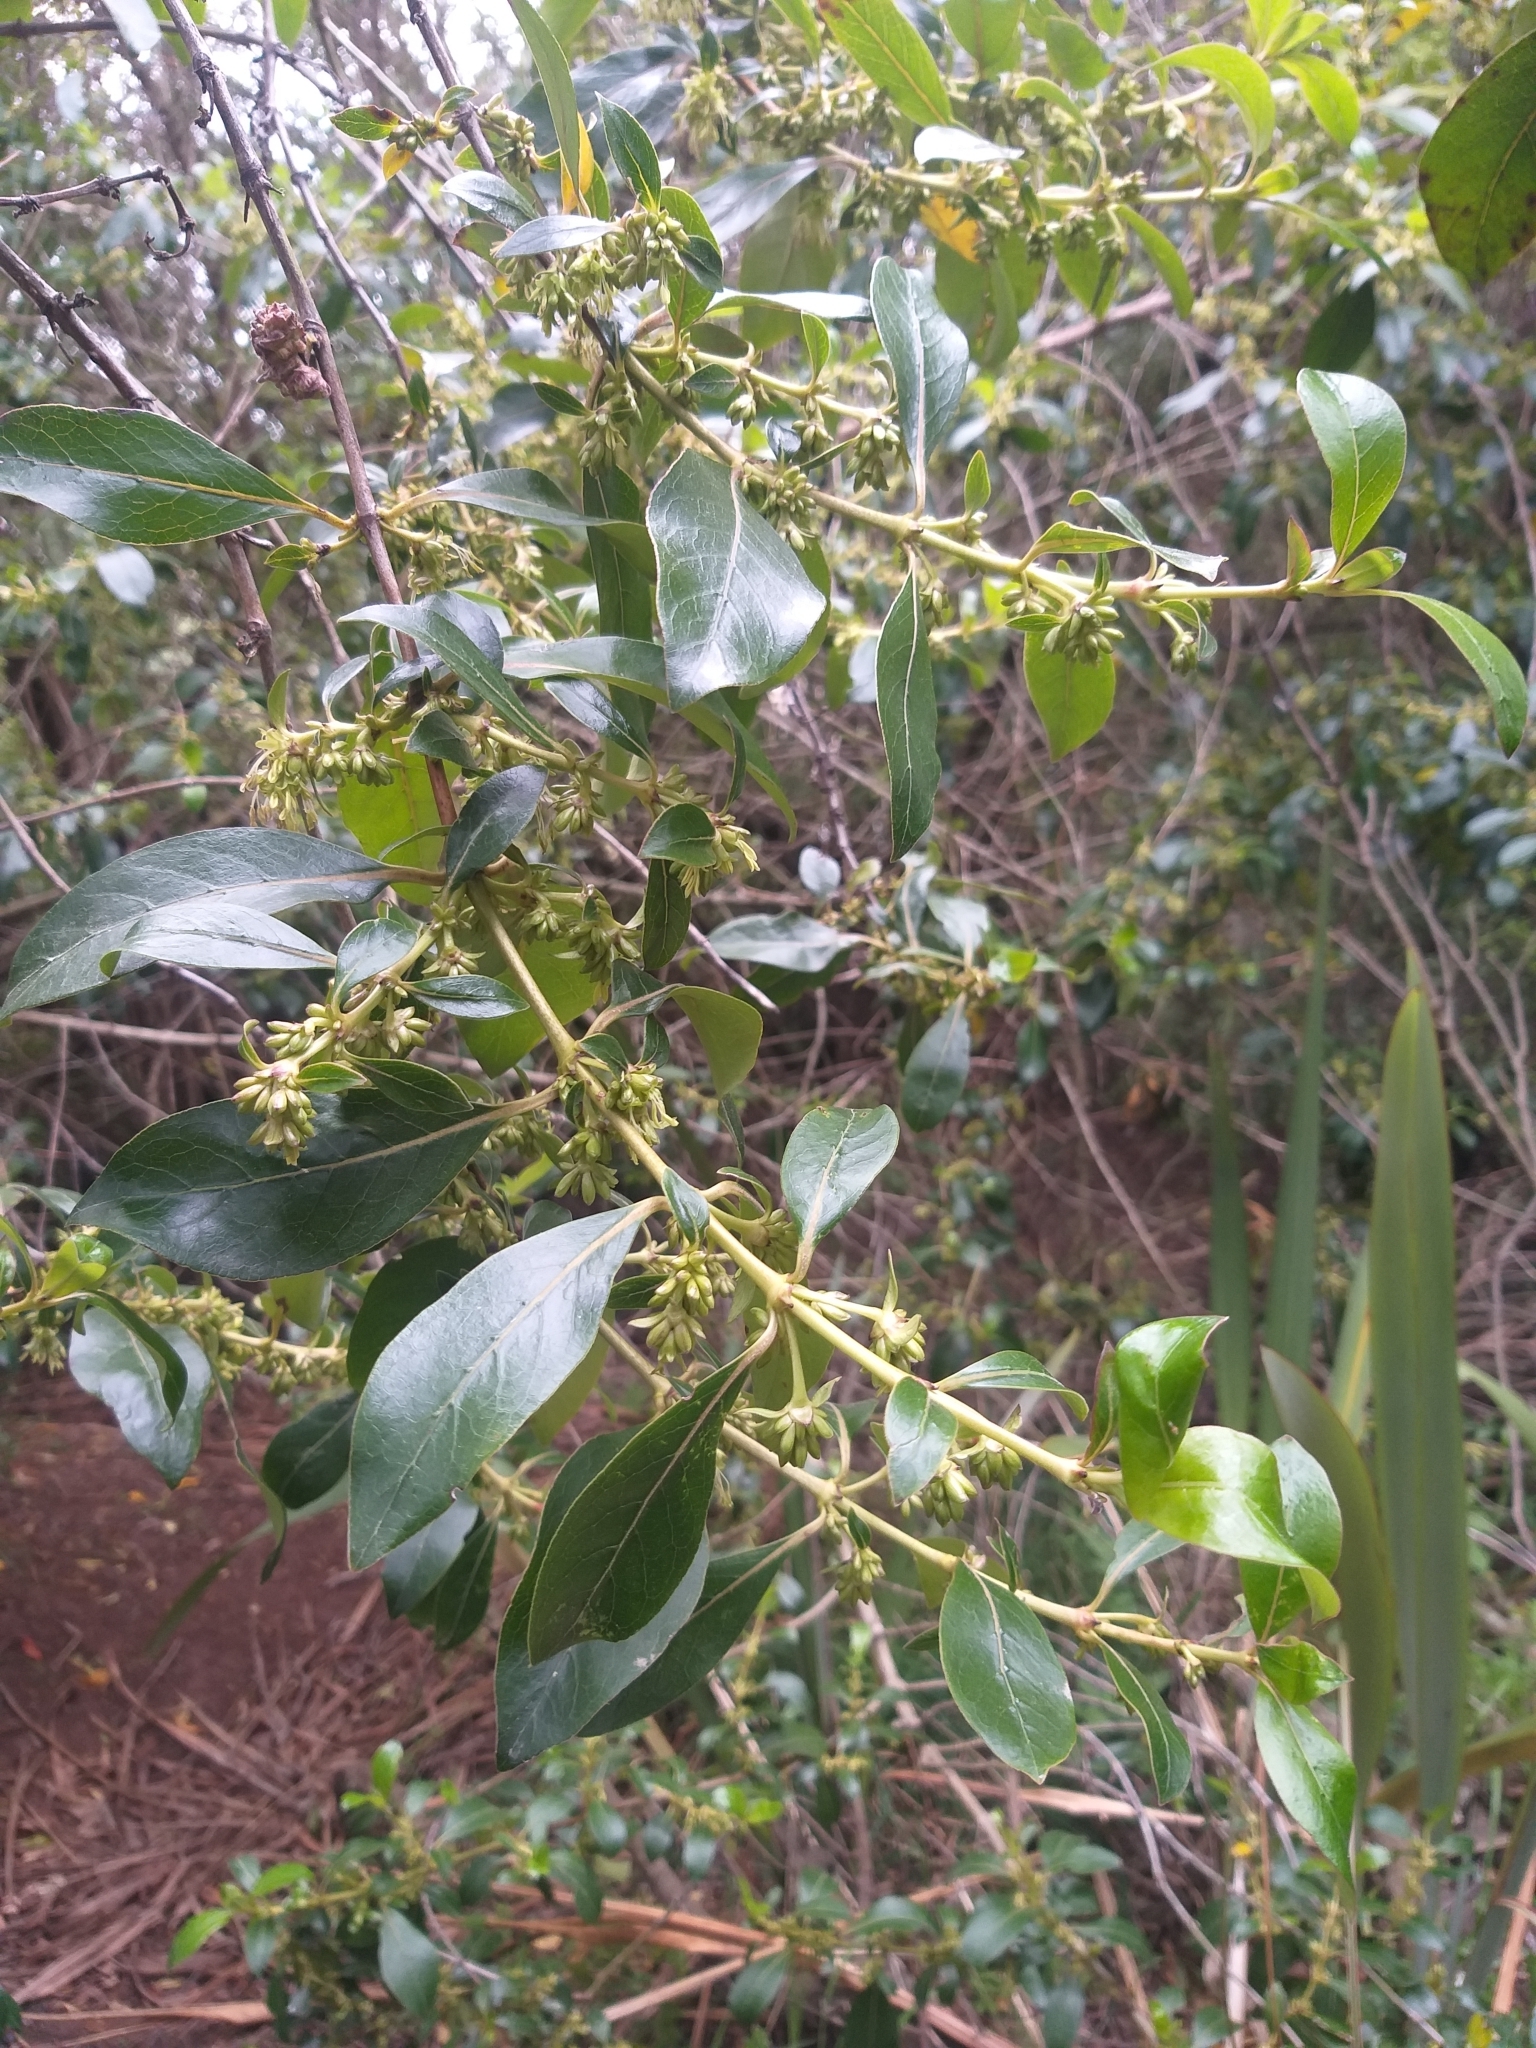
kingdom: Plantae
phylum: Tracheophyta
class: Magnoliopsida
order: Gentianales
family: Rubiaceae
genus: Coprosma
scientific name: Coprosma robusta
